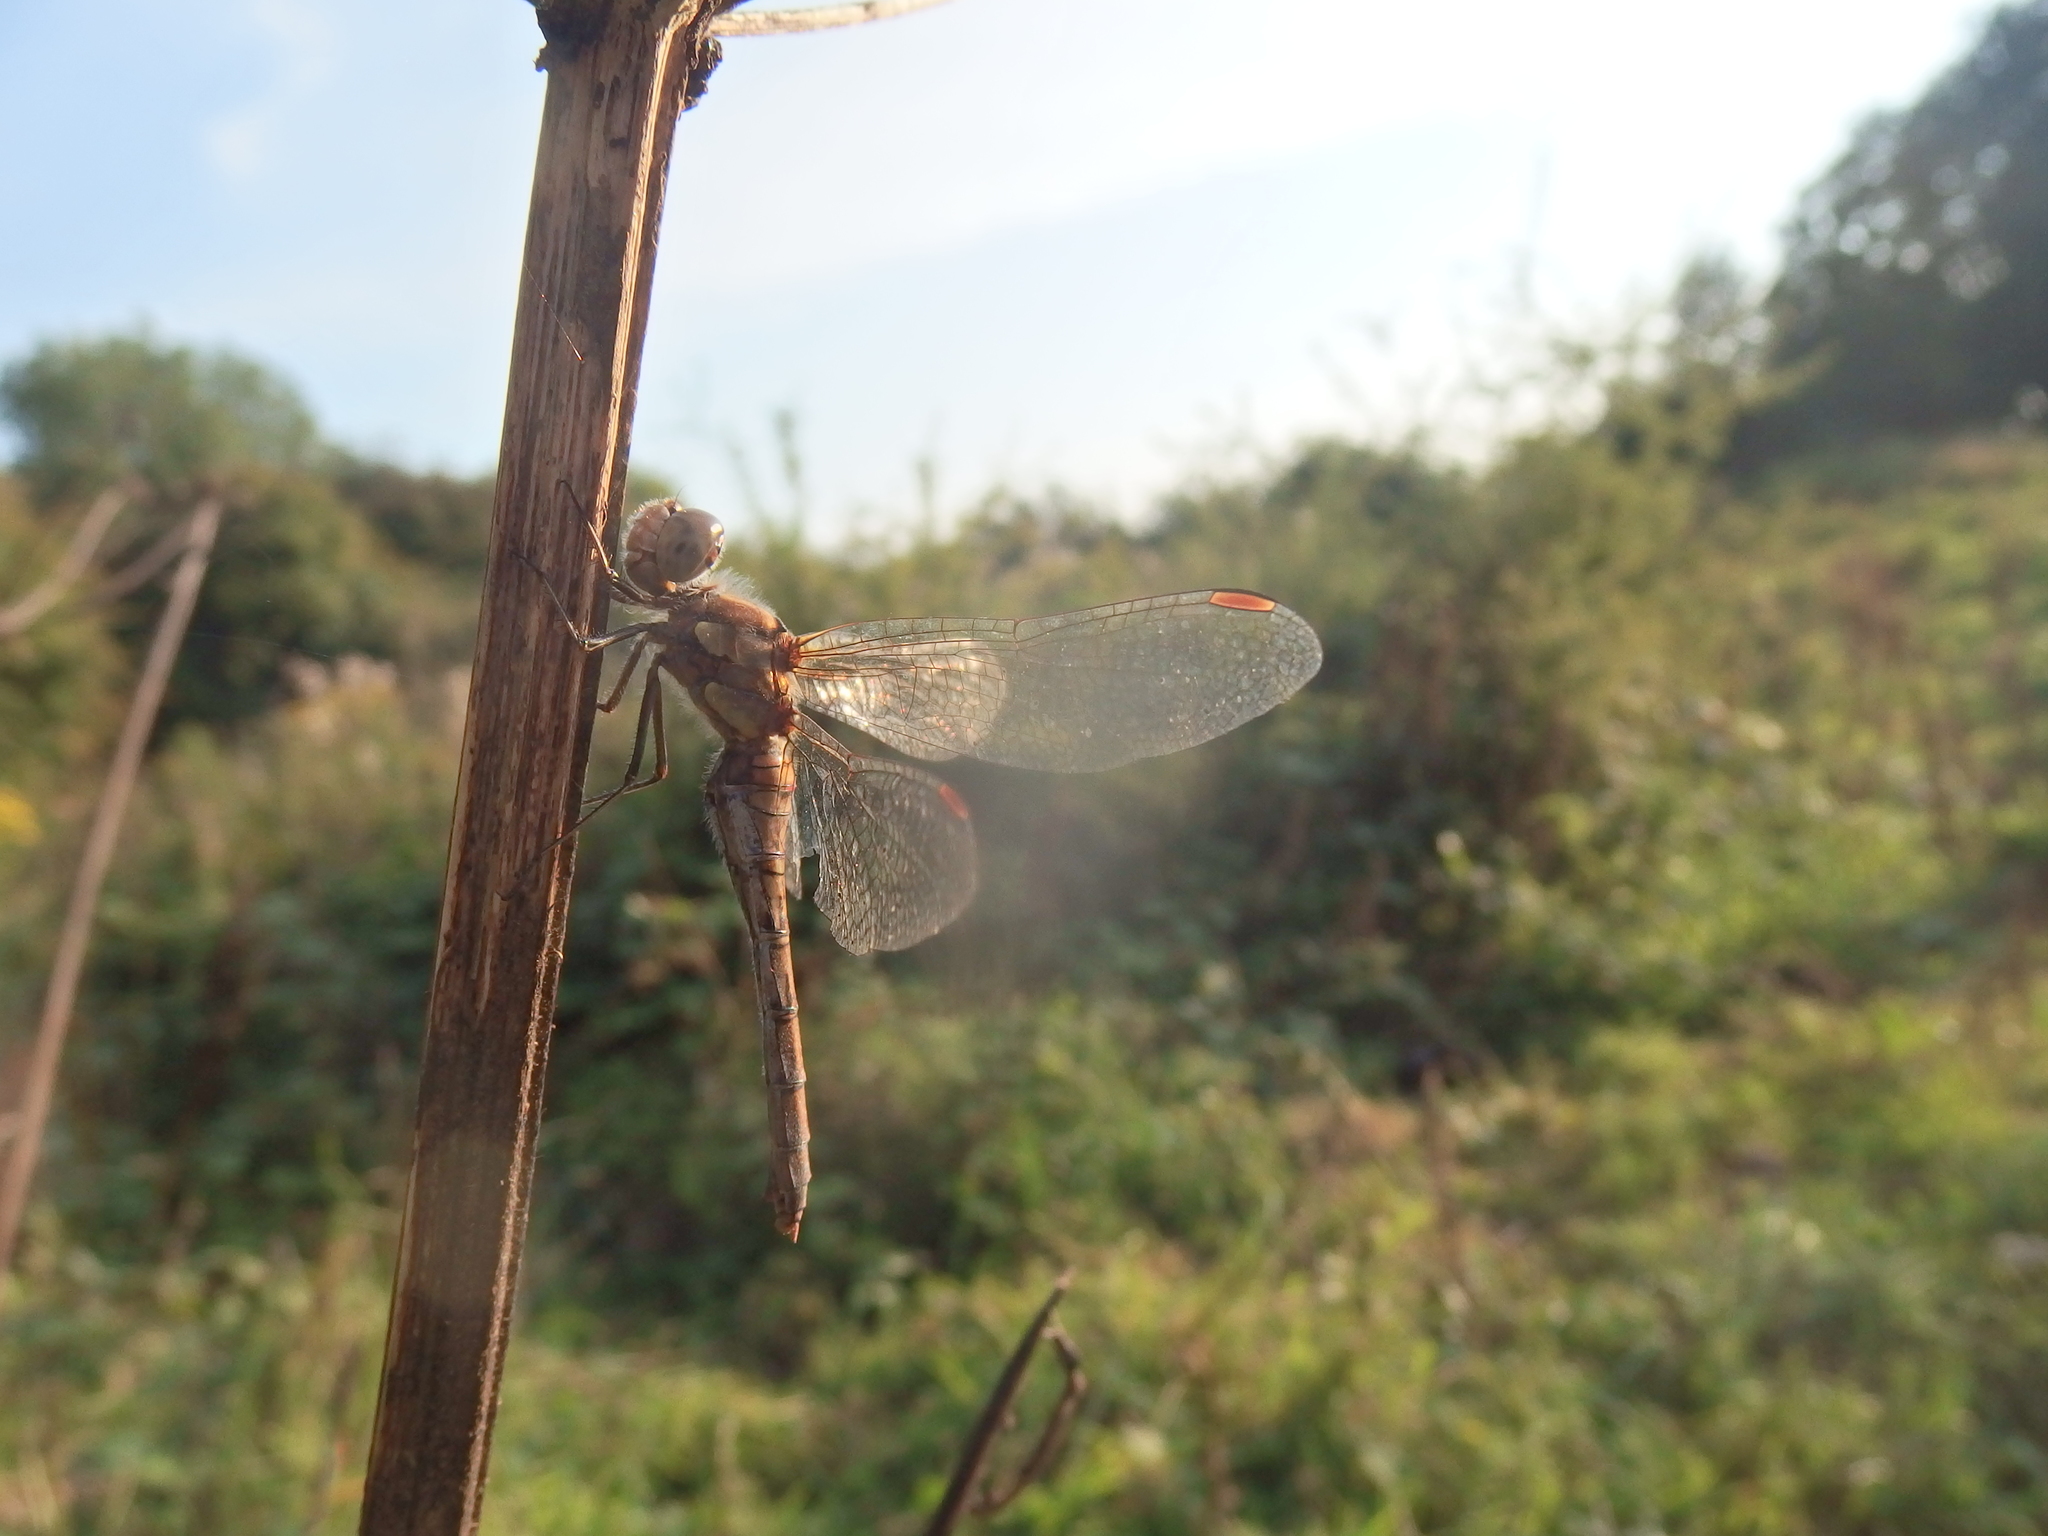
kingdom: Animalia
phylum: Arthropoda
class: Insecta
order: Odonata
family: Libellulidae
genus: Sympetrum
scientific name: Sympetrum striolatum
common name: Common darter
